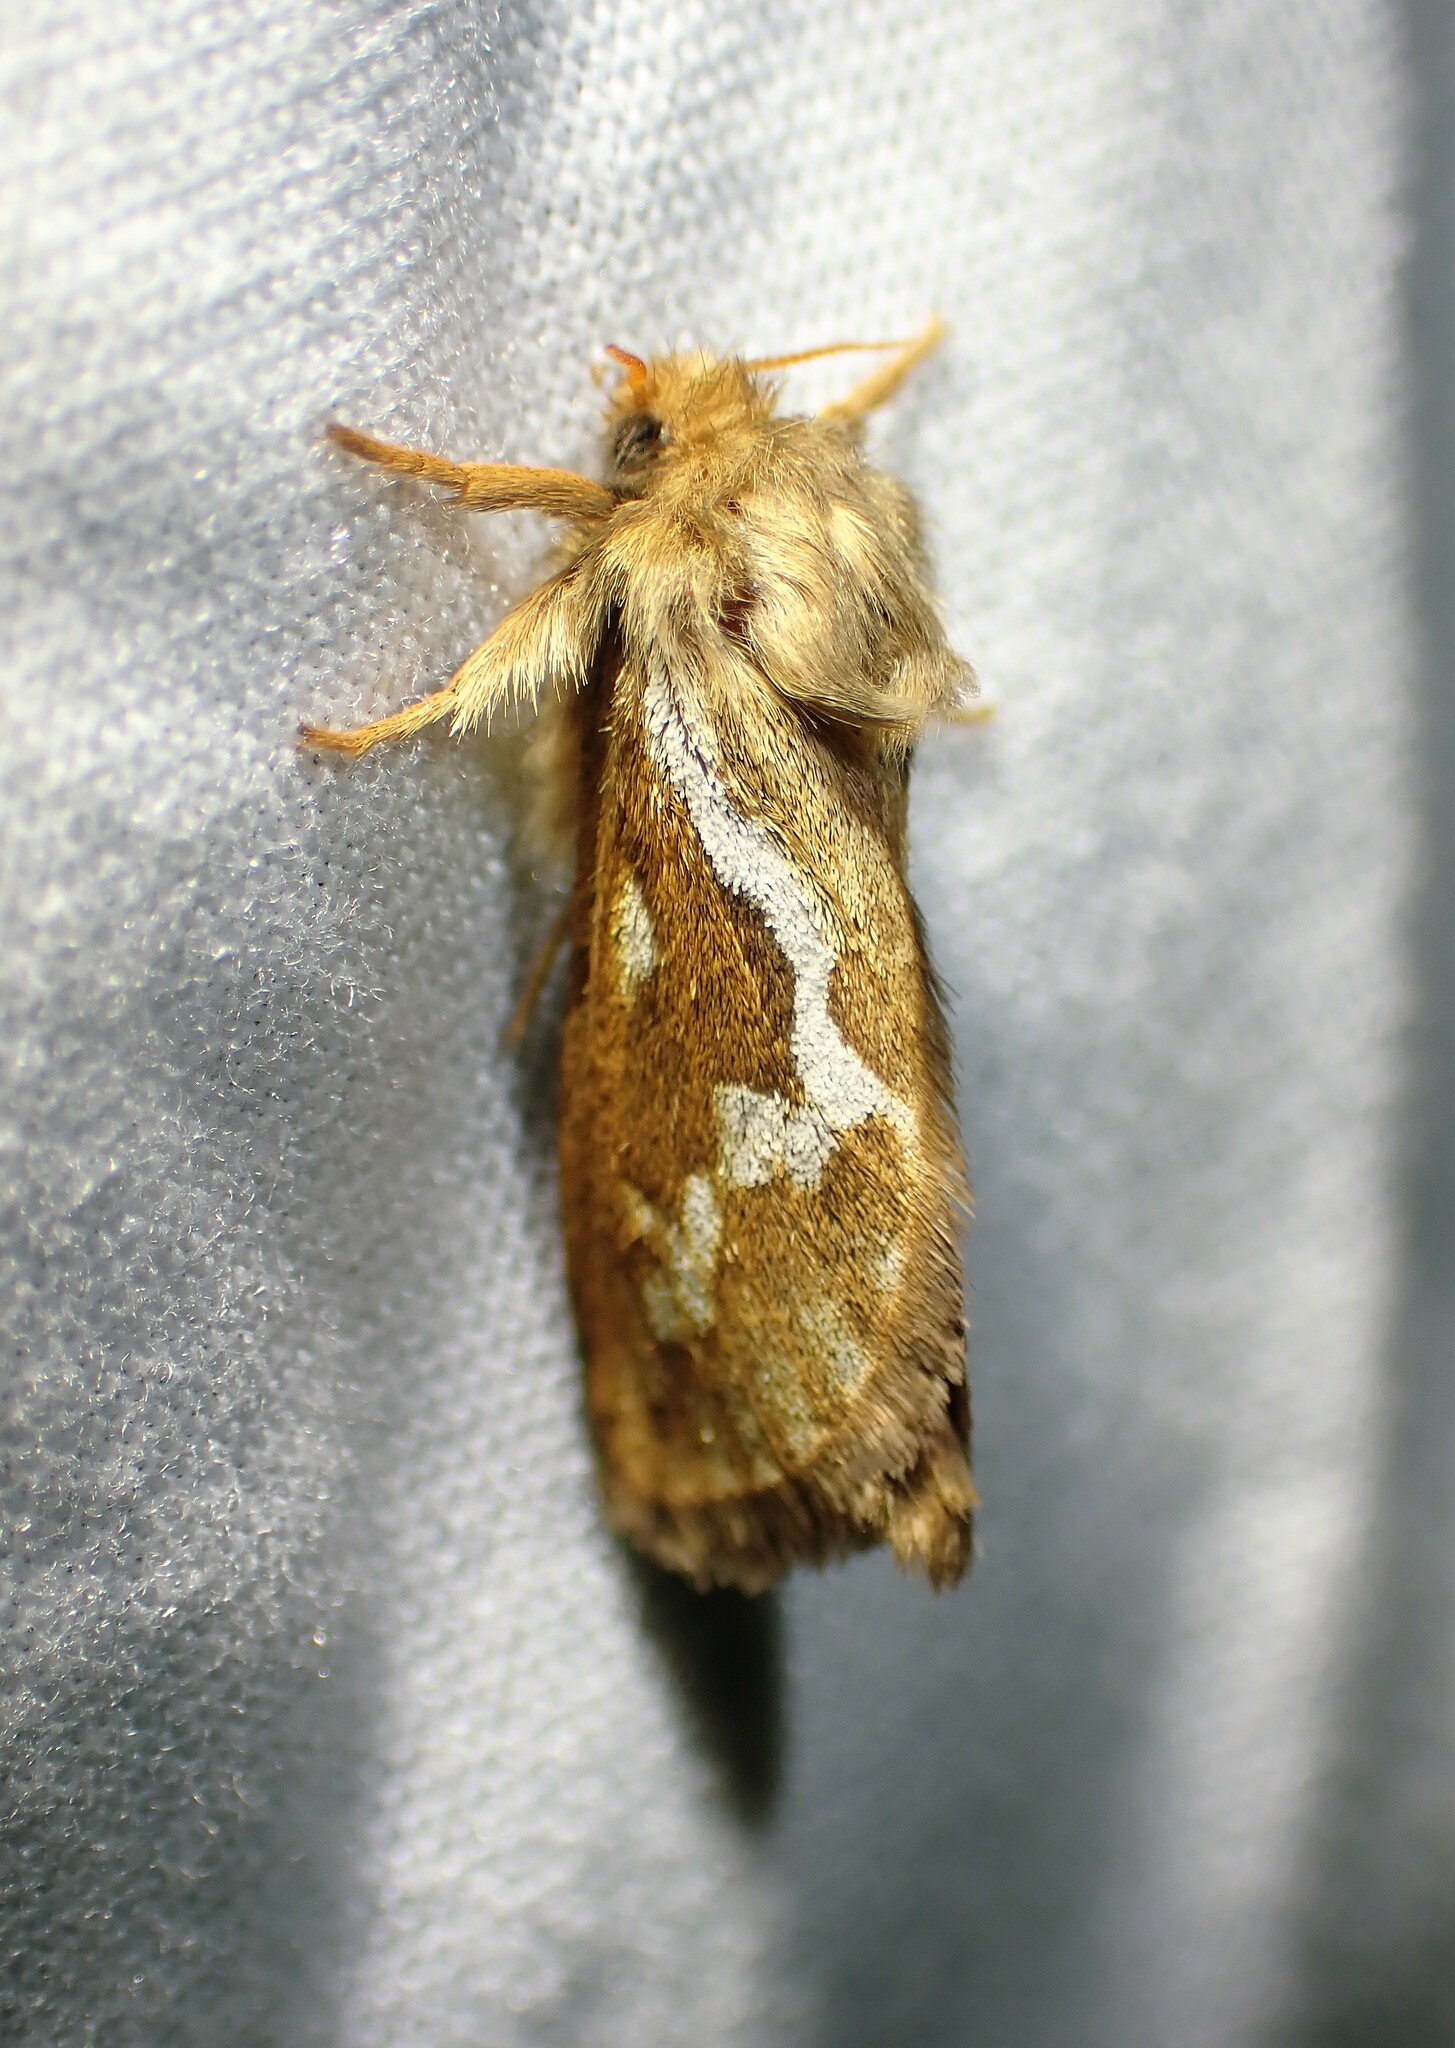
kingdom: Animalia
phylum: Arthropoda
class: Insecta
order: Lepidoptera
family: Hepialidae
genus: Korscheltellus
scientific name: Korscheltellus lupulina
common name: Common swift
